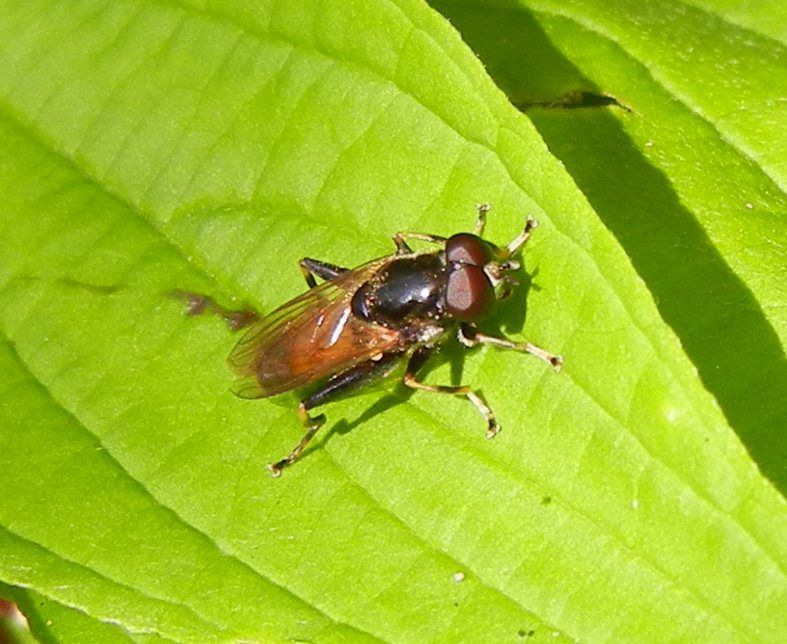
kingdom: Animalia
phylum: Arthropoda
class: Insecta
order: Diptera
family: Syrphidae
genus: Xylota
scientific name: Xylota segnis
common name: Brown-toed forest fly
